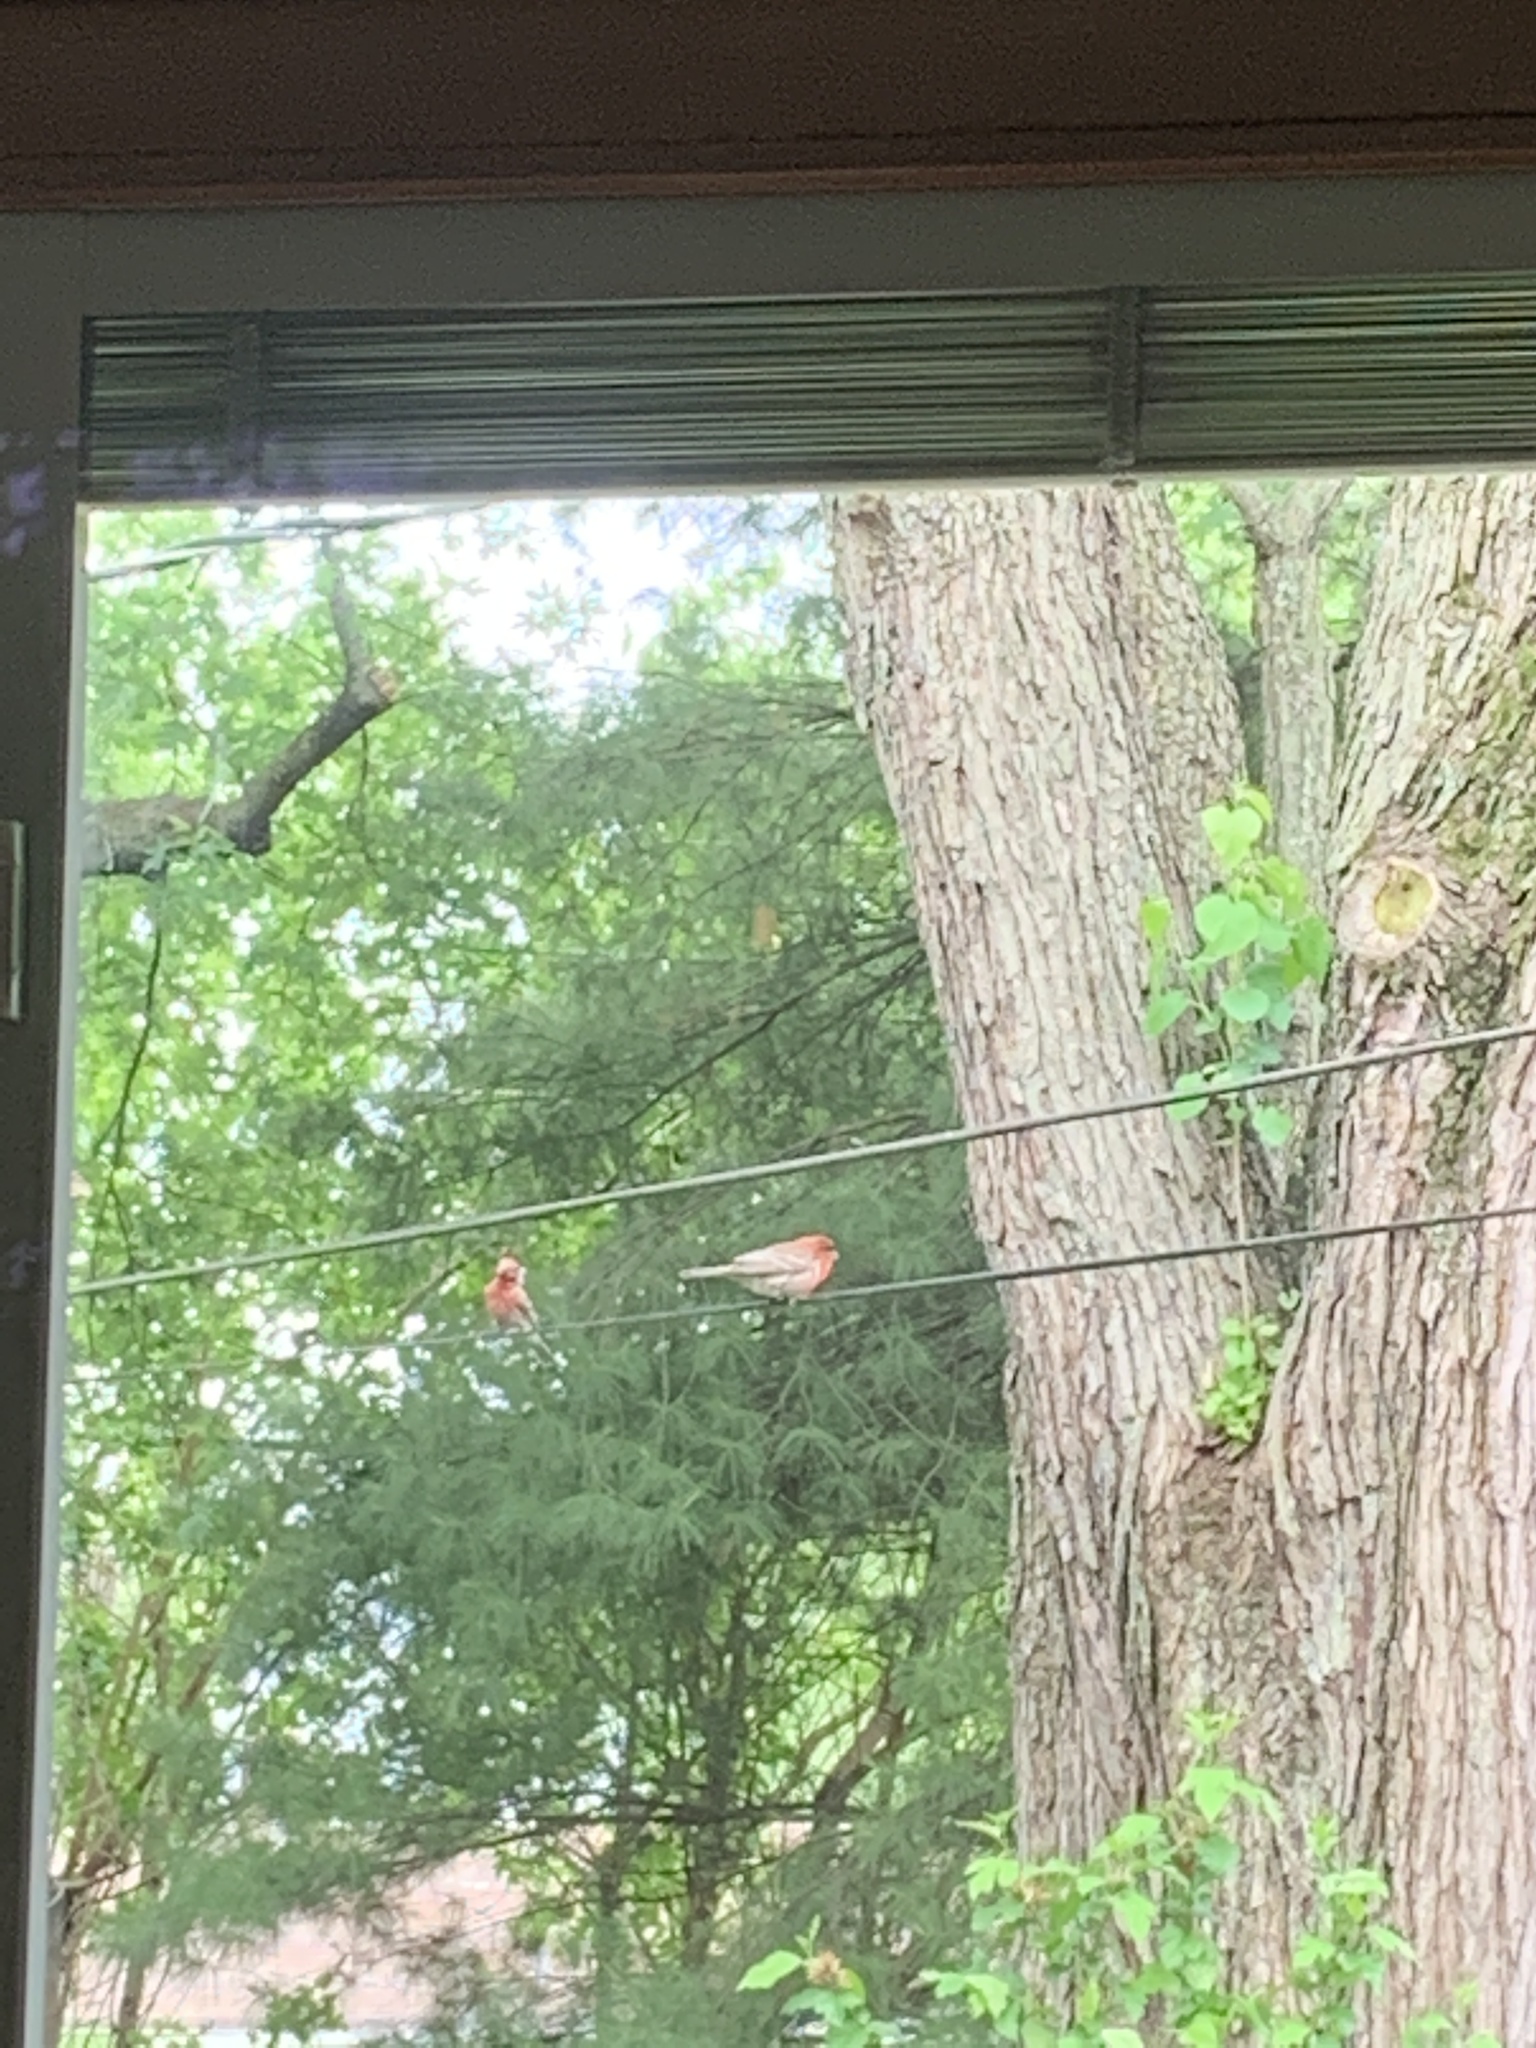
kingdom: Animalia
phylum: Chordata
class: Aves
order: Passeriformes
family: Fringillidae
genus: Haemorhous
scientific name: Haemorhous mexicanus
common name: House finch
